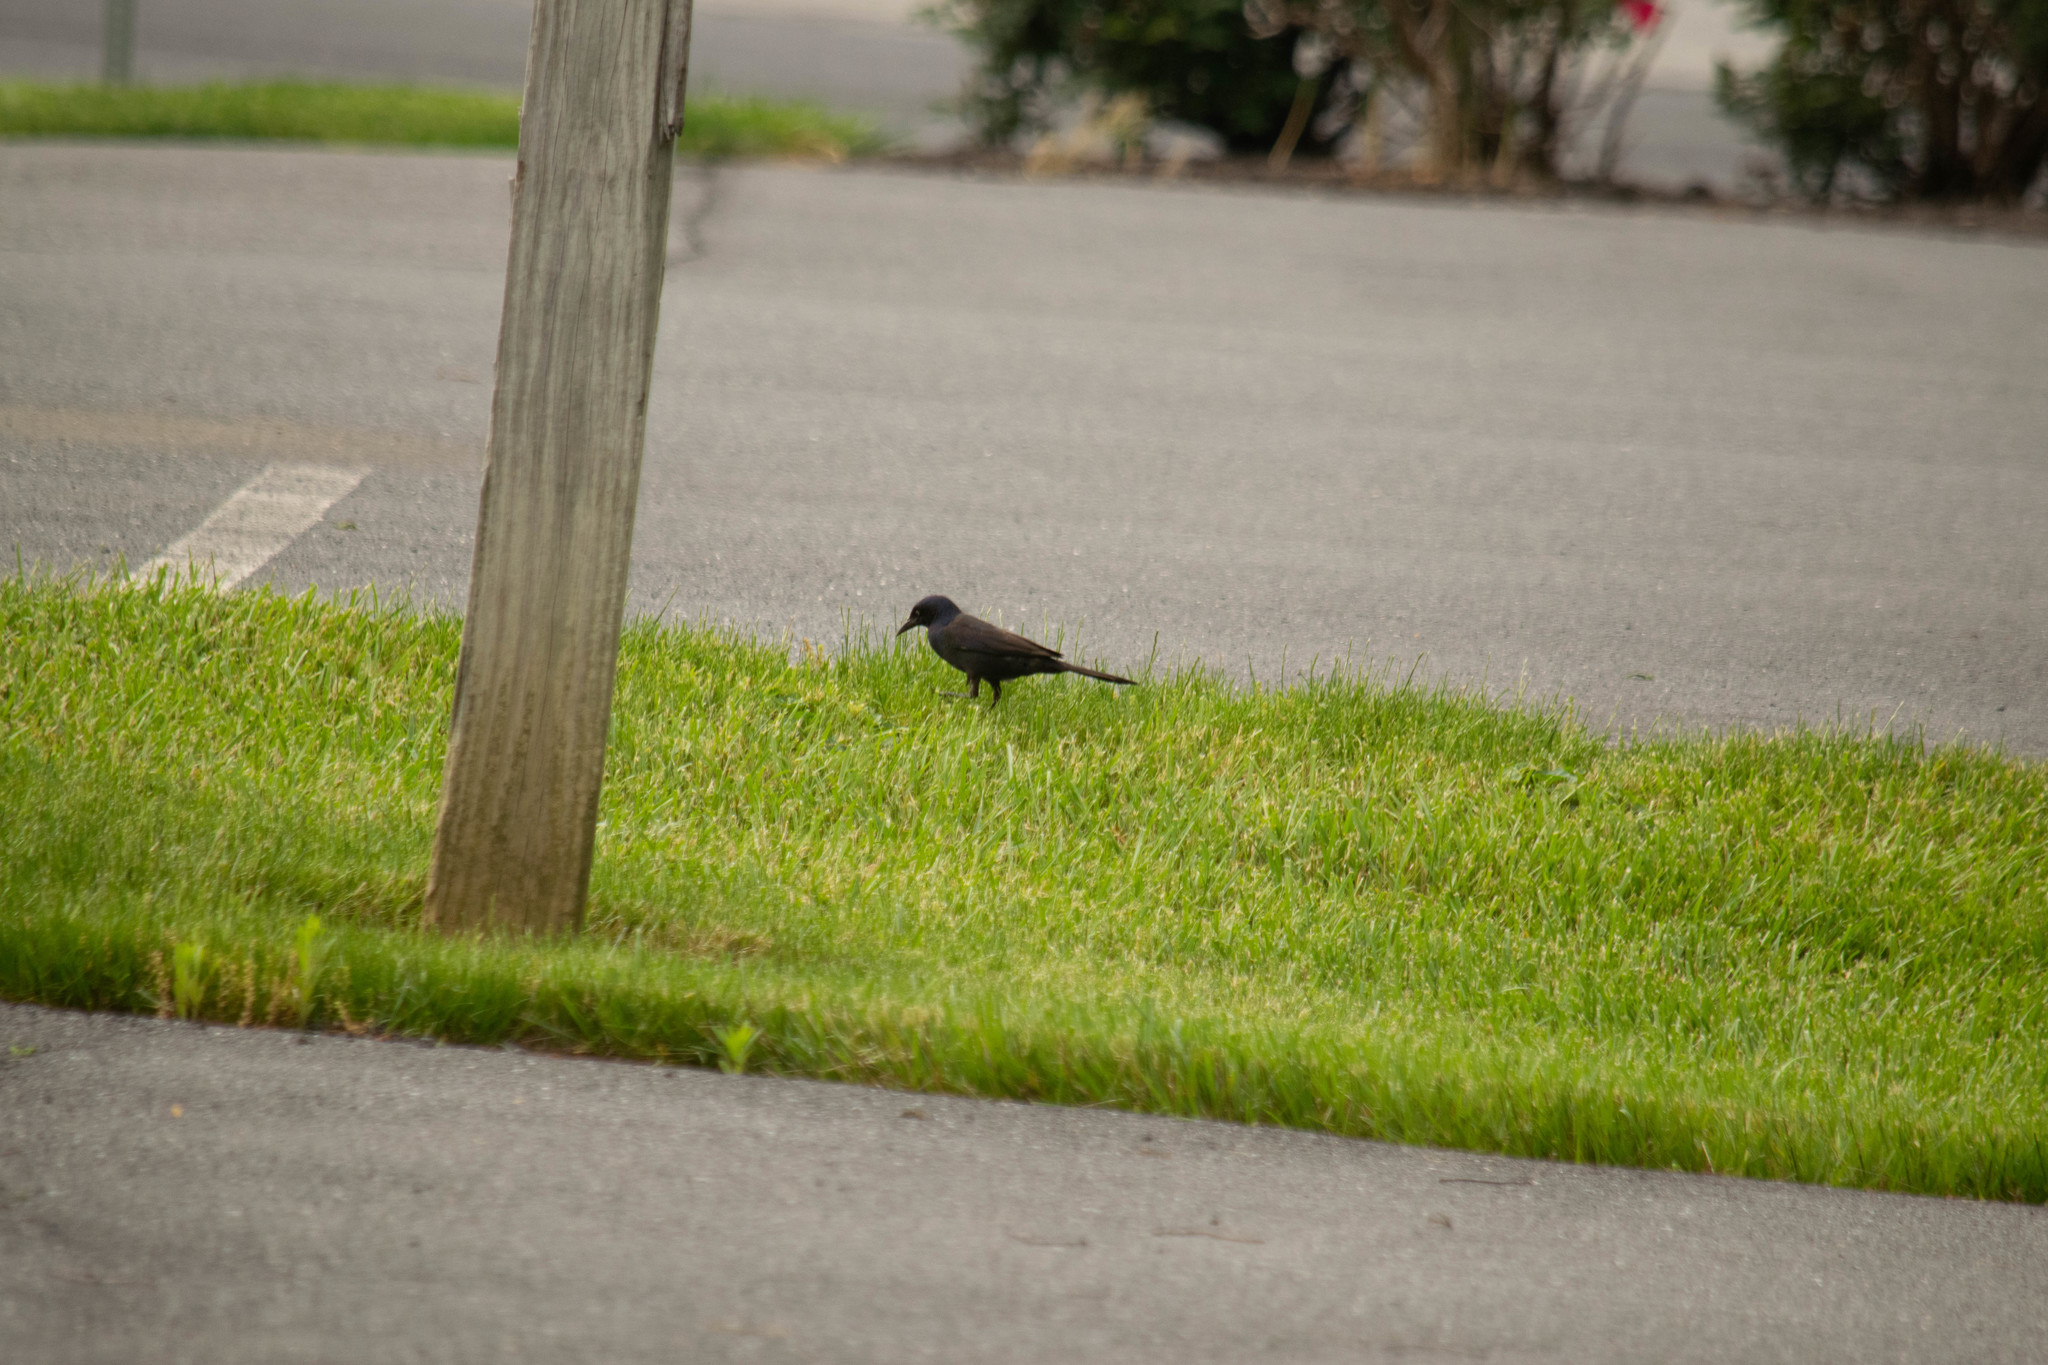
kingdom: Animalia
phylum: Chordata
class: Aves
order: Passeriformes
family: Icteridae
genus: Quiscalus
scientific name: Quiscalus quiscula
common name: Common grackle
